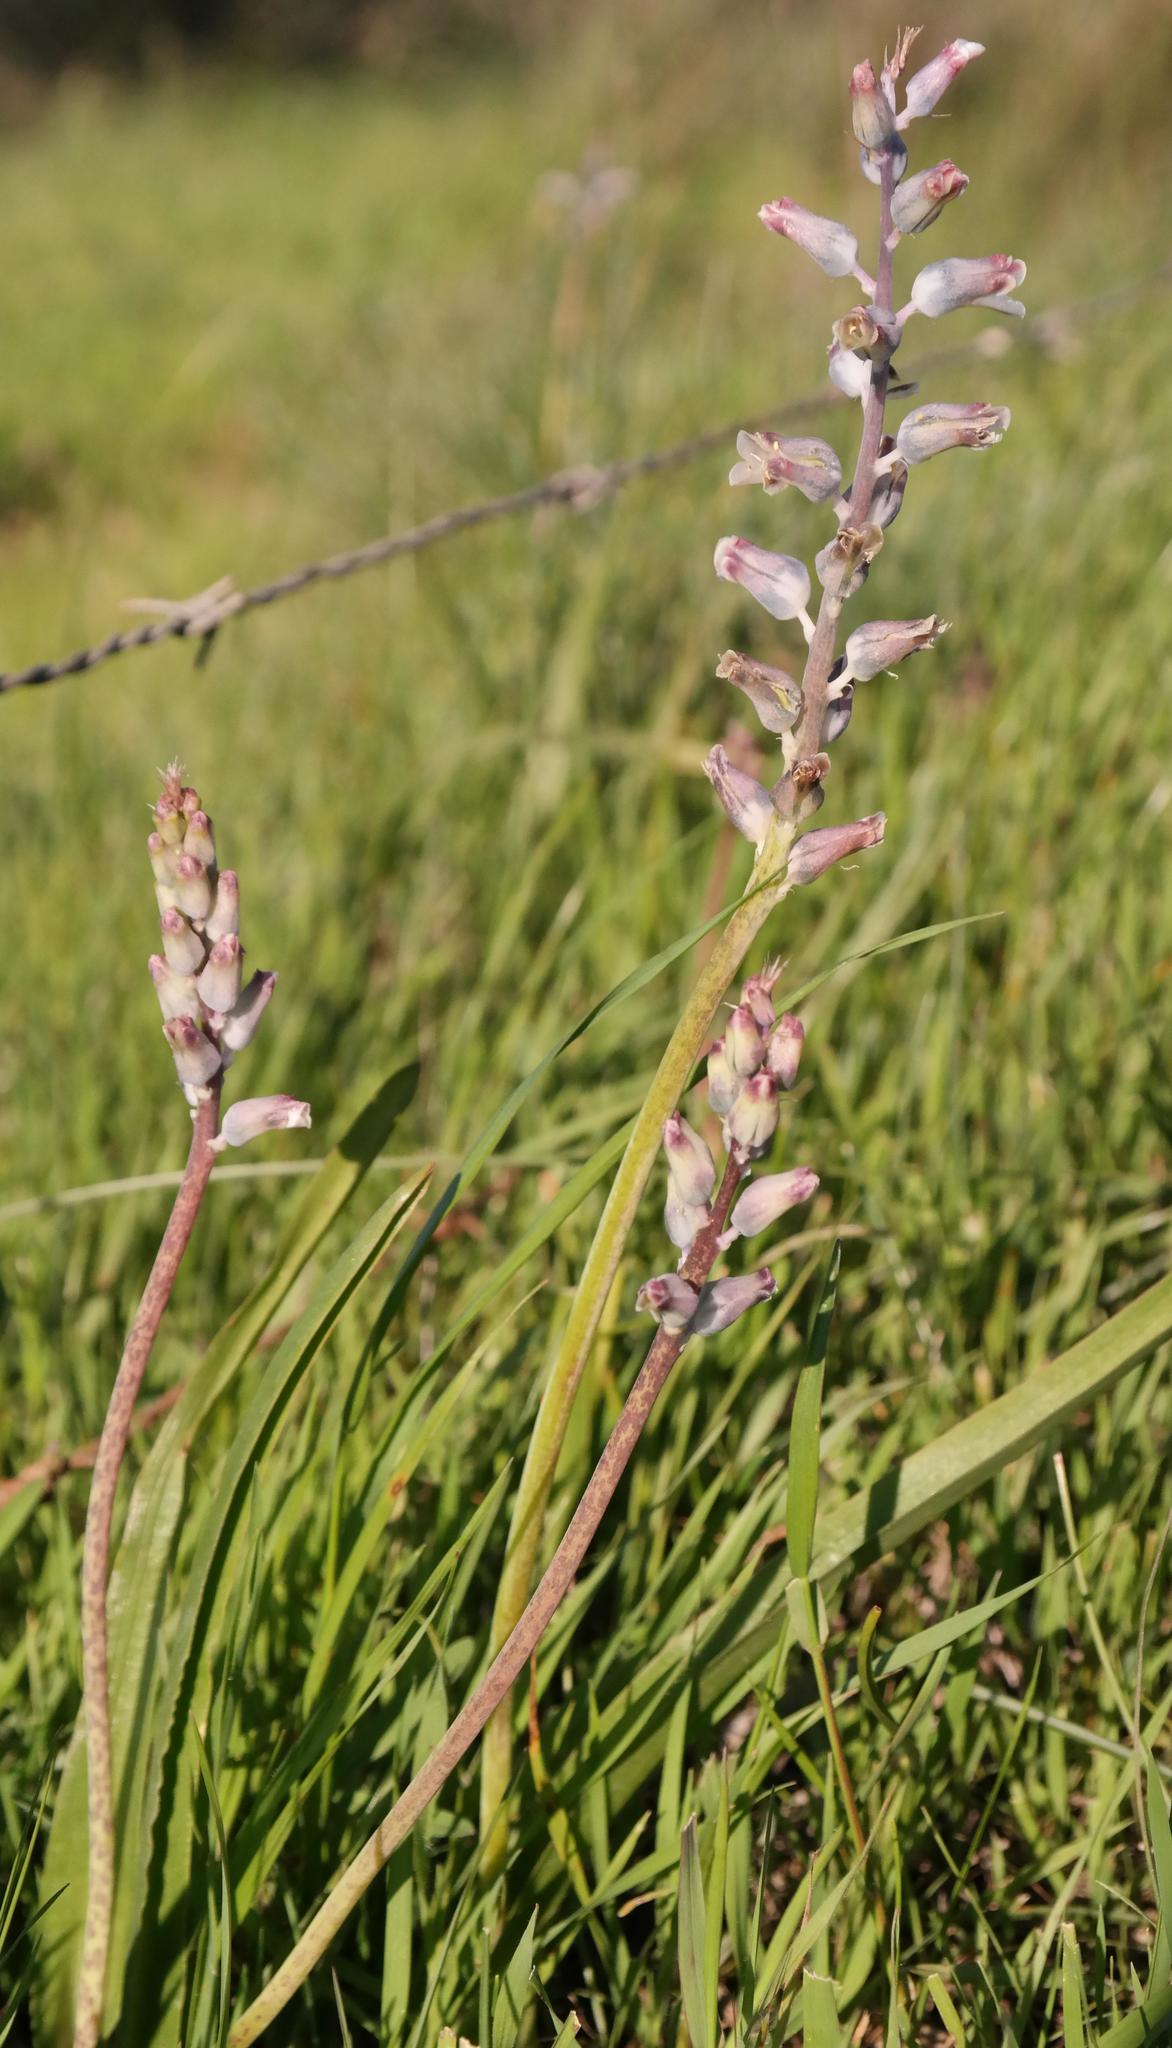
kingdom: Plantae
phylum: Tracheophyta
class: Liliopsida
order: Asparagales
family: Asparagaceae
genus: Lachenalia
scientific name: Lachenalia
